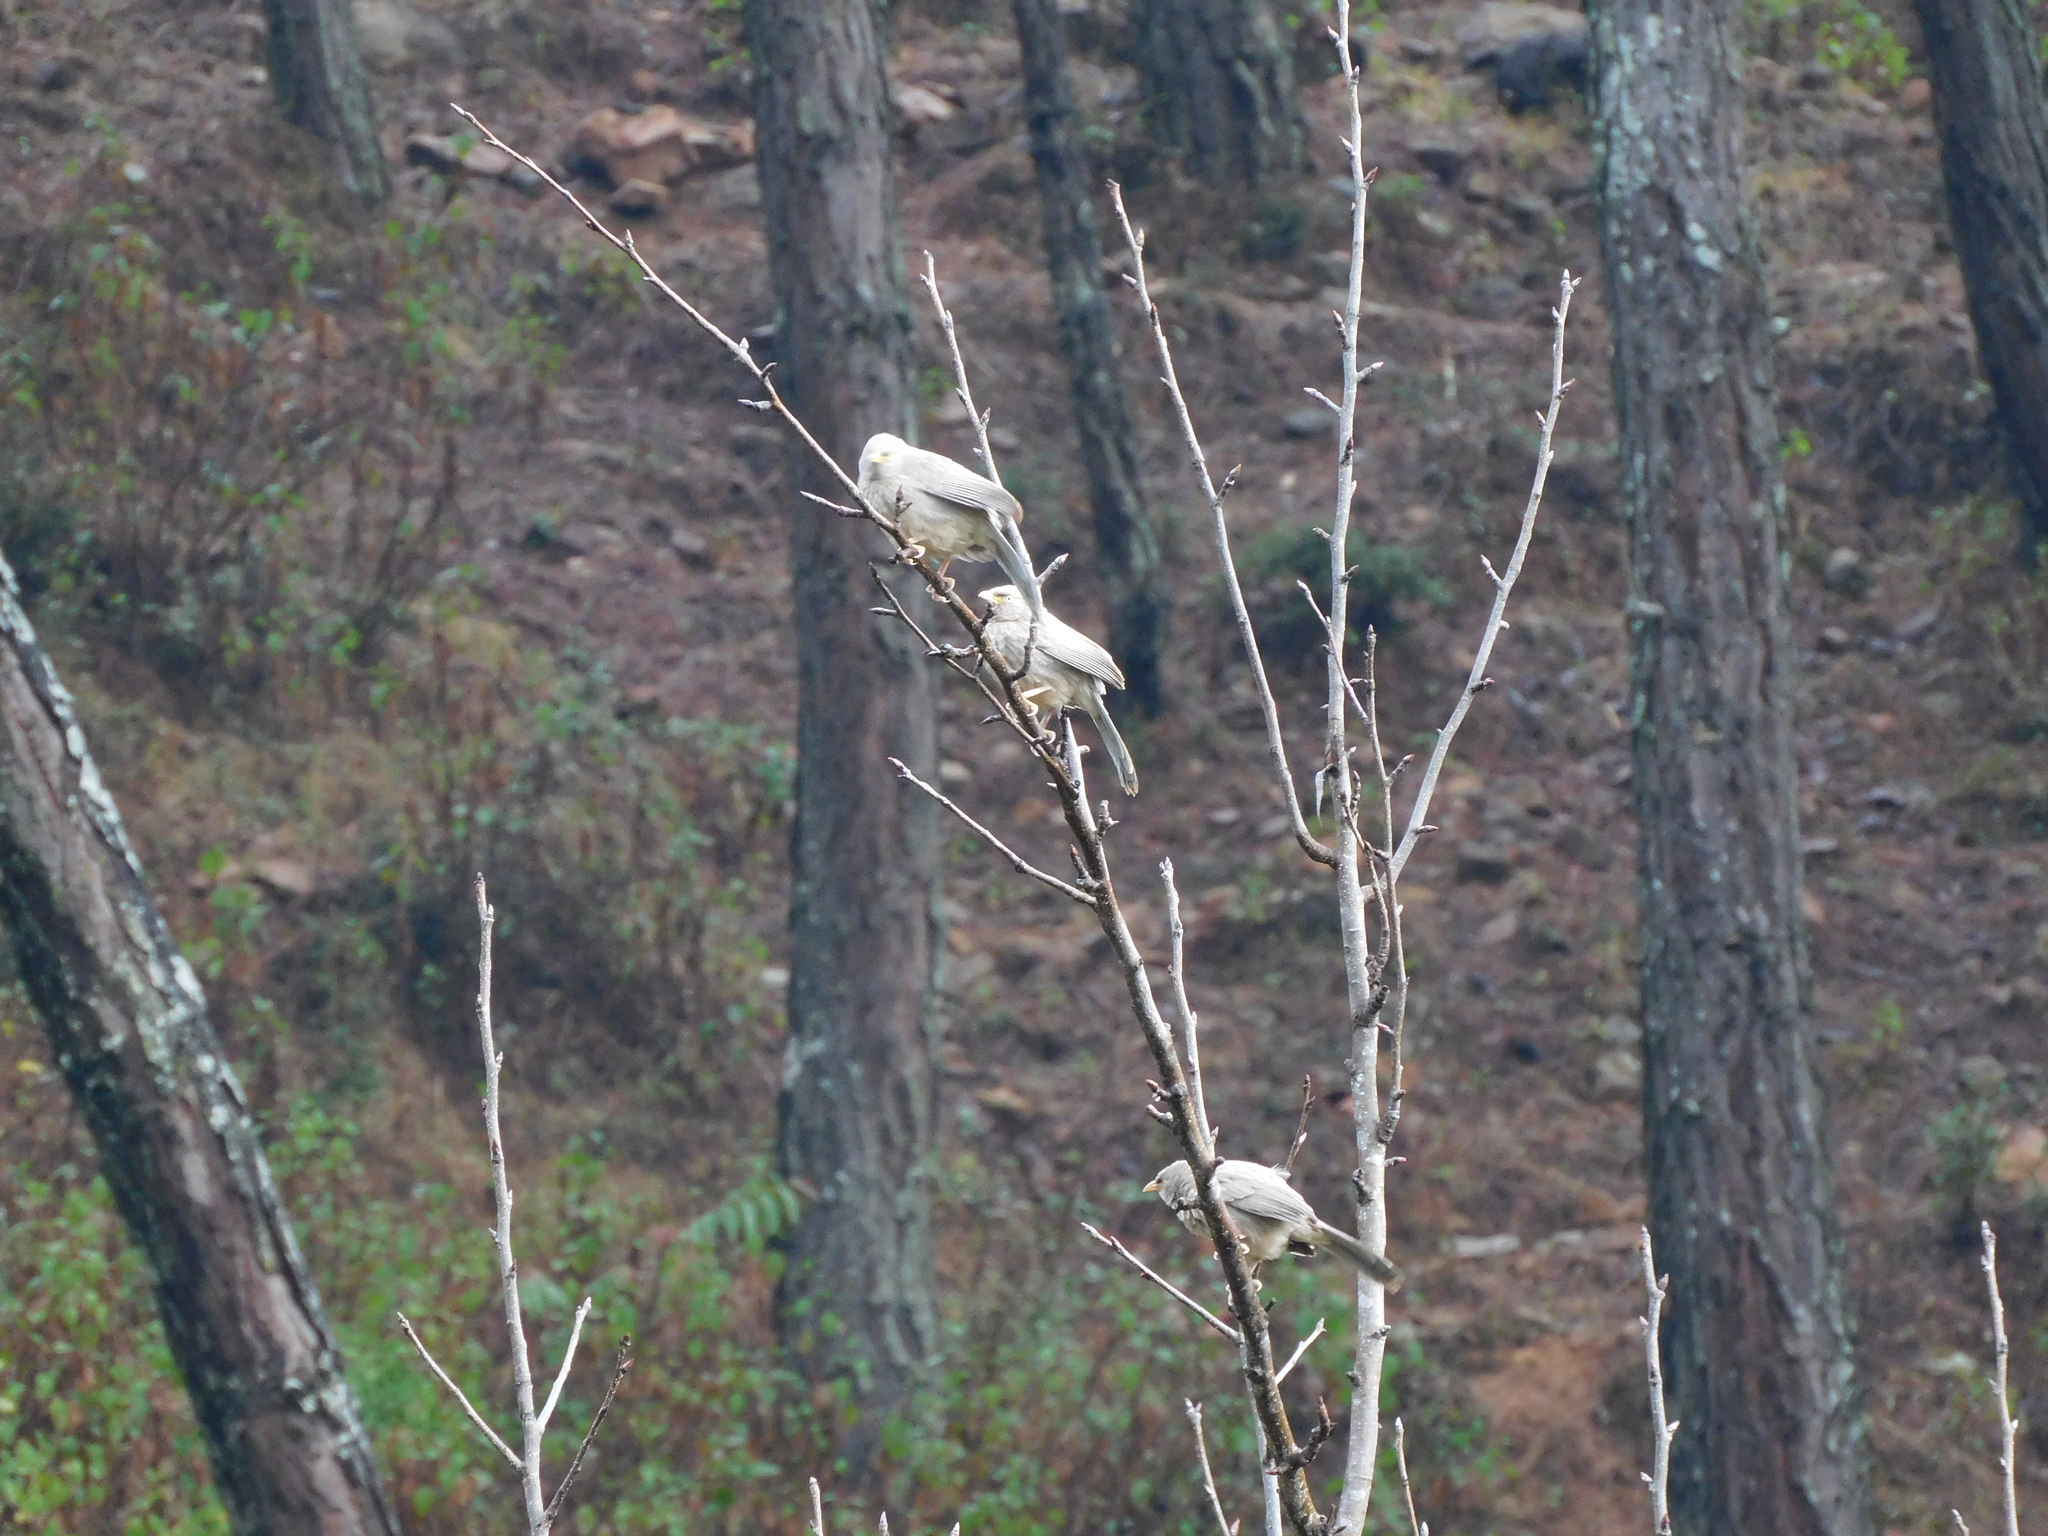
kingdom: Animalia
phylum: Chordata
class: Aves
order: Passeriformes
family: Leiothrichidae
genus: Turdoides
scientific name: Turdoides striata
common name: Jungle babbler
